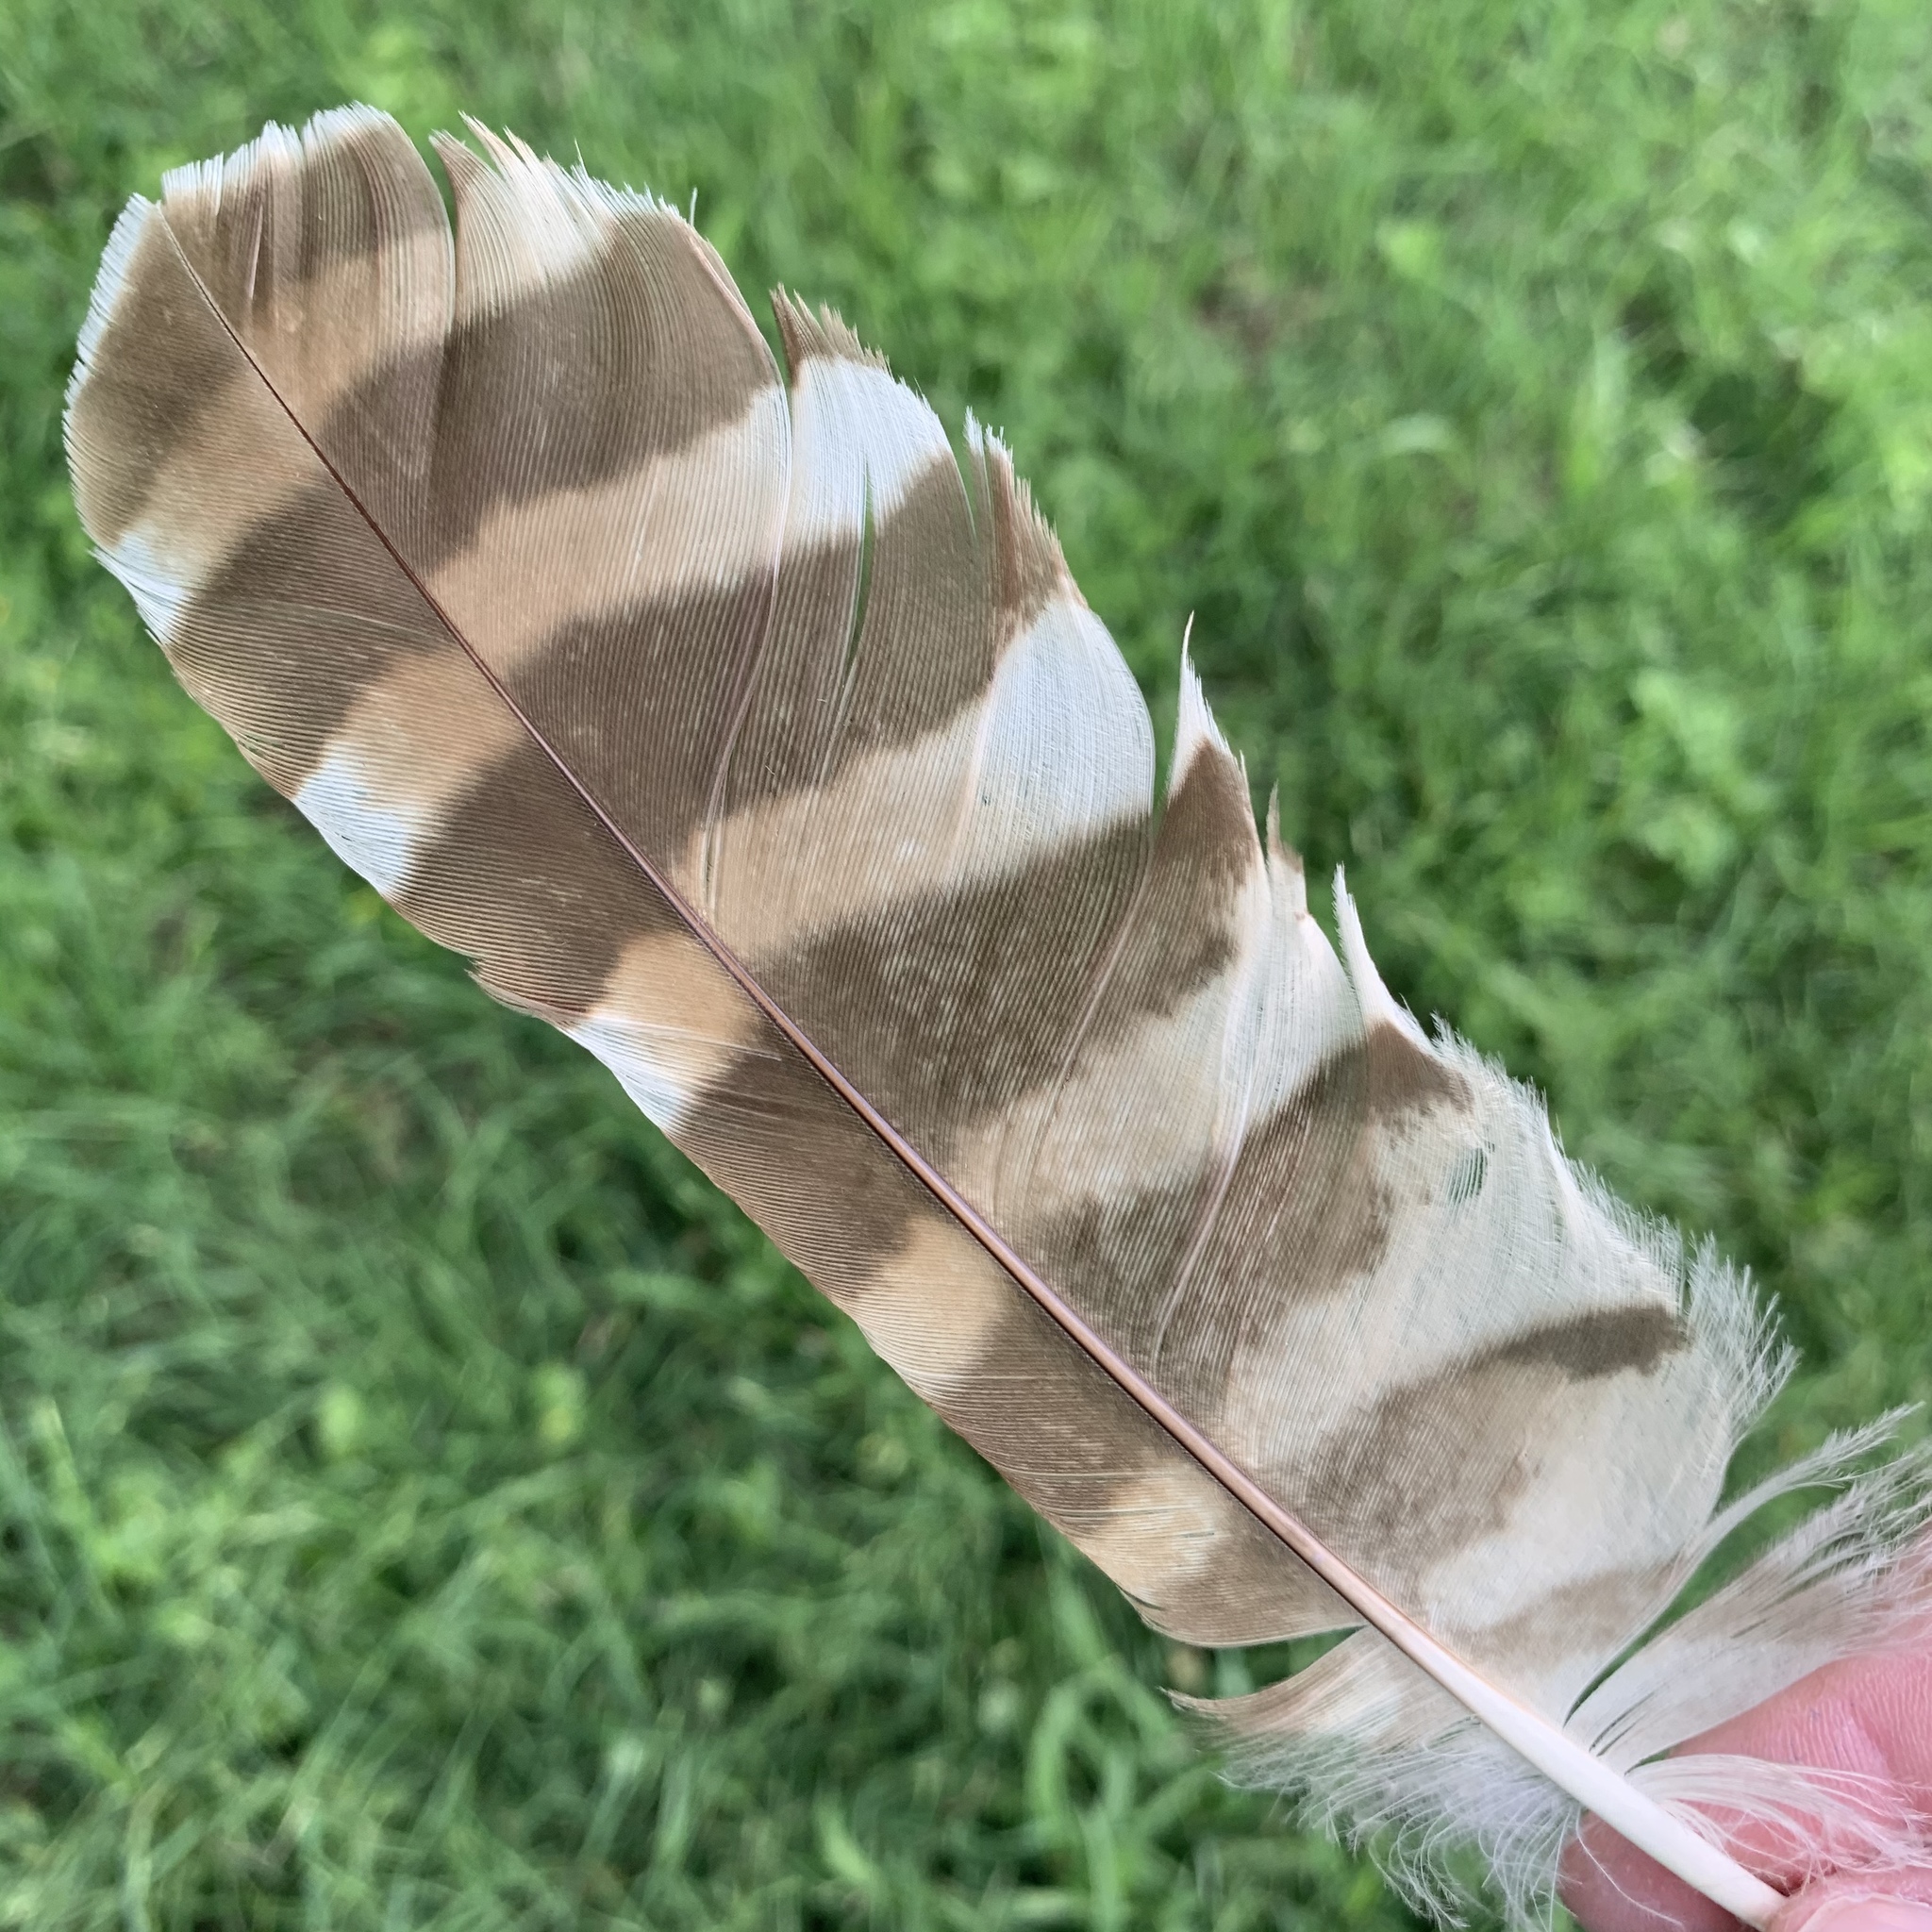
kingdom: Animalia
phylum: Chordata
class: Aves
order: Strigiformes
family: Strigidae
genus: Strix
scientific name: Strix varia
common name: Barred owl
